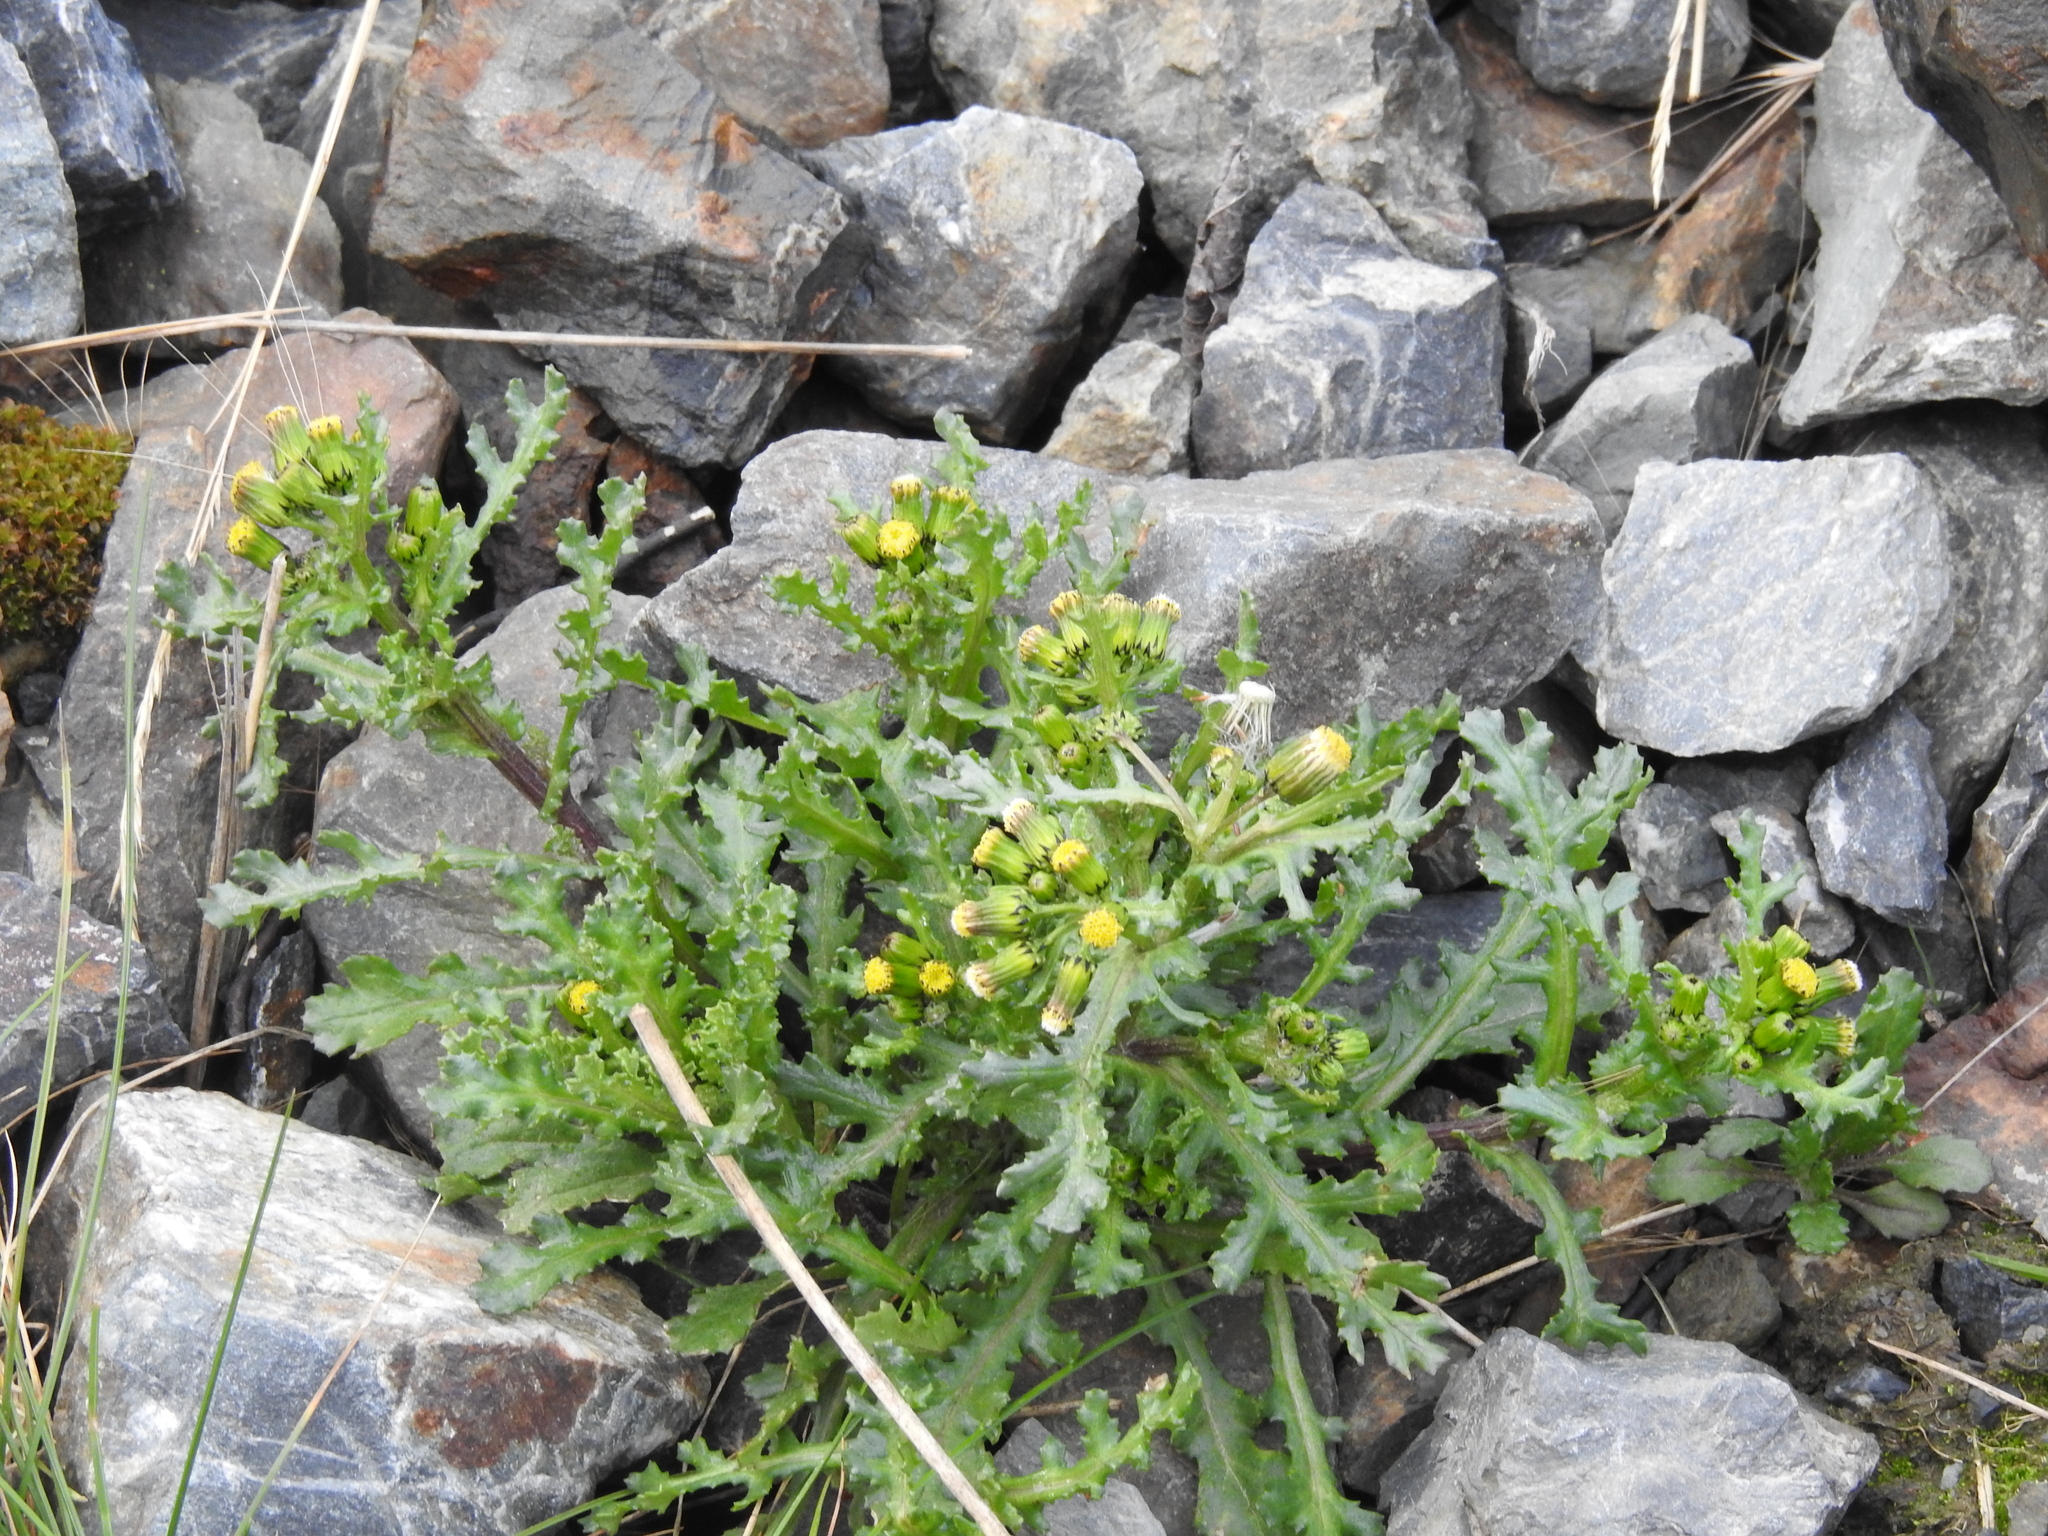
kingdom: Plantae
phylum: Tracheophyta
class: Magnoliopsida
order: Asterales
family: Asteraceae
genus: Senecio
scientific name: Senecio vulgaris
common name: Old-man-in-the-spring
